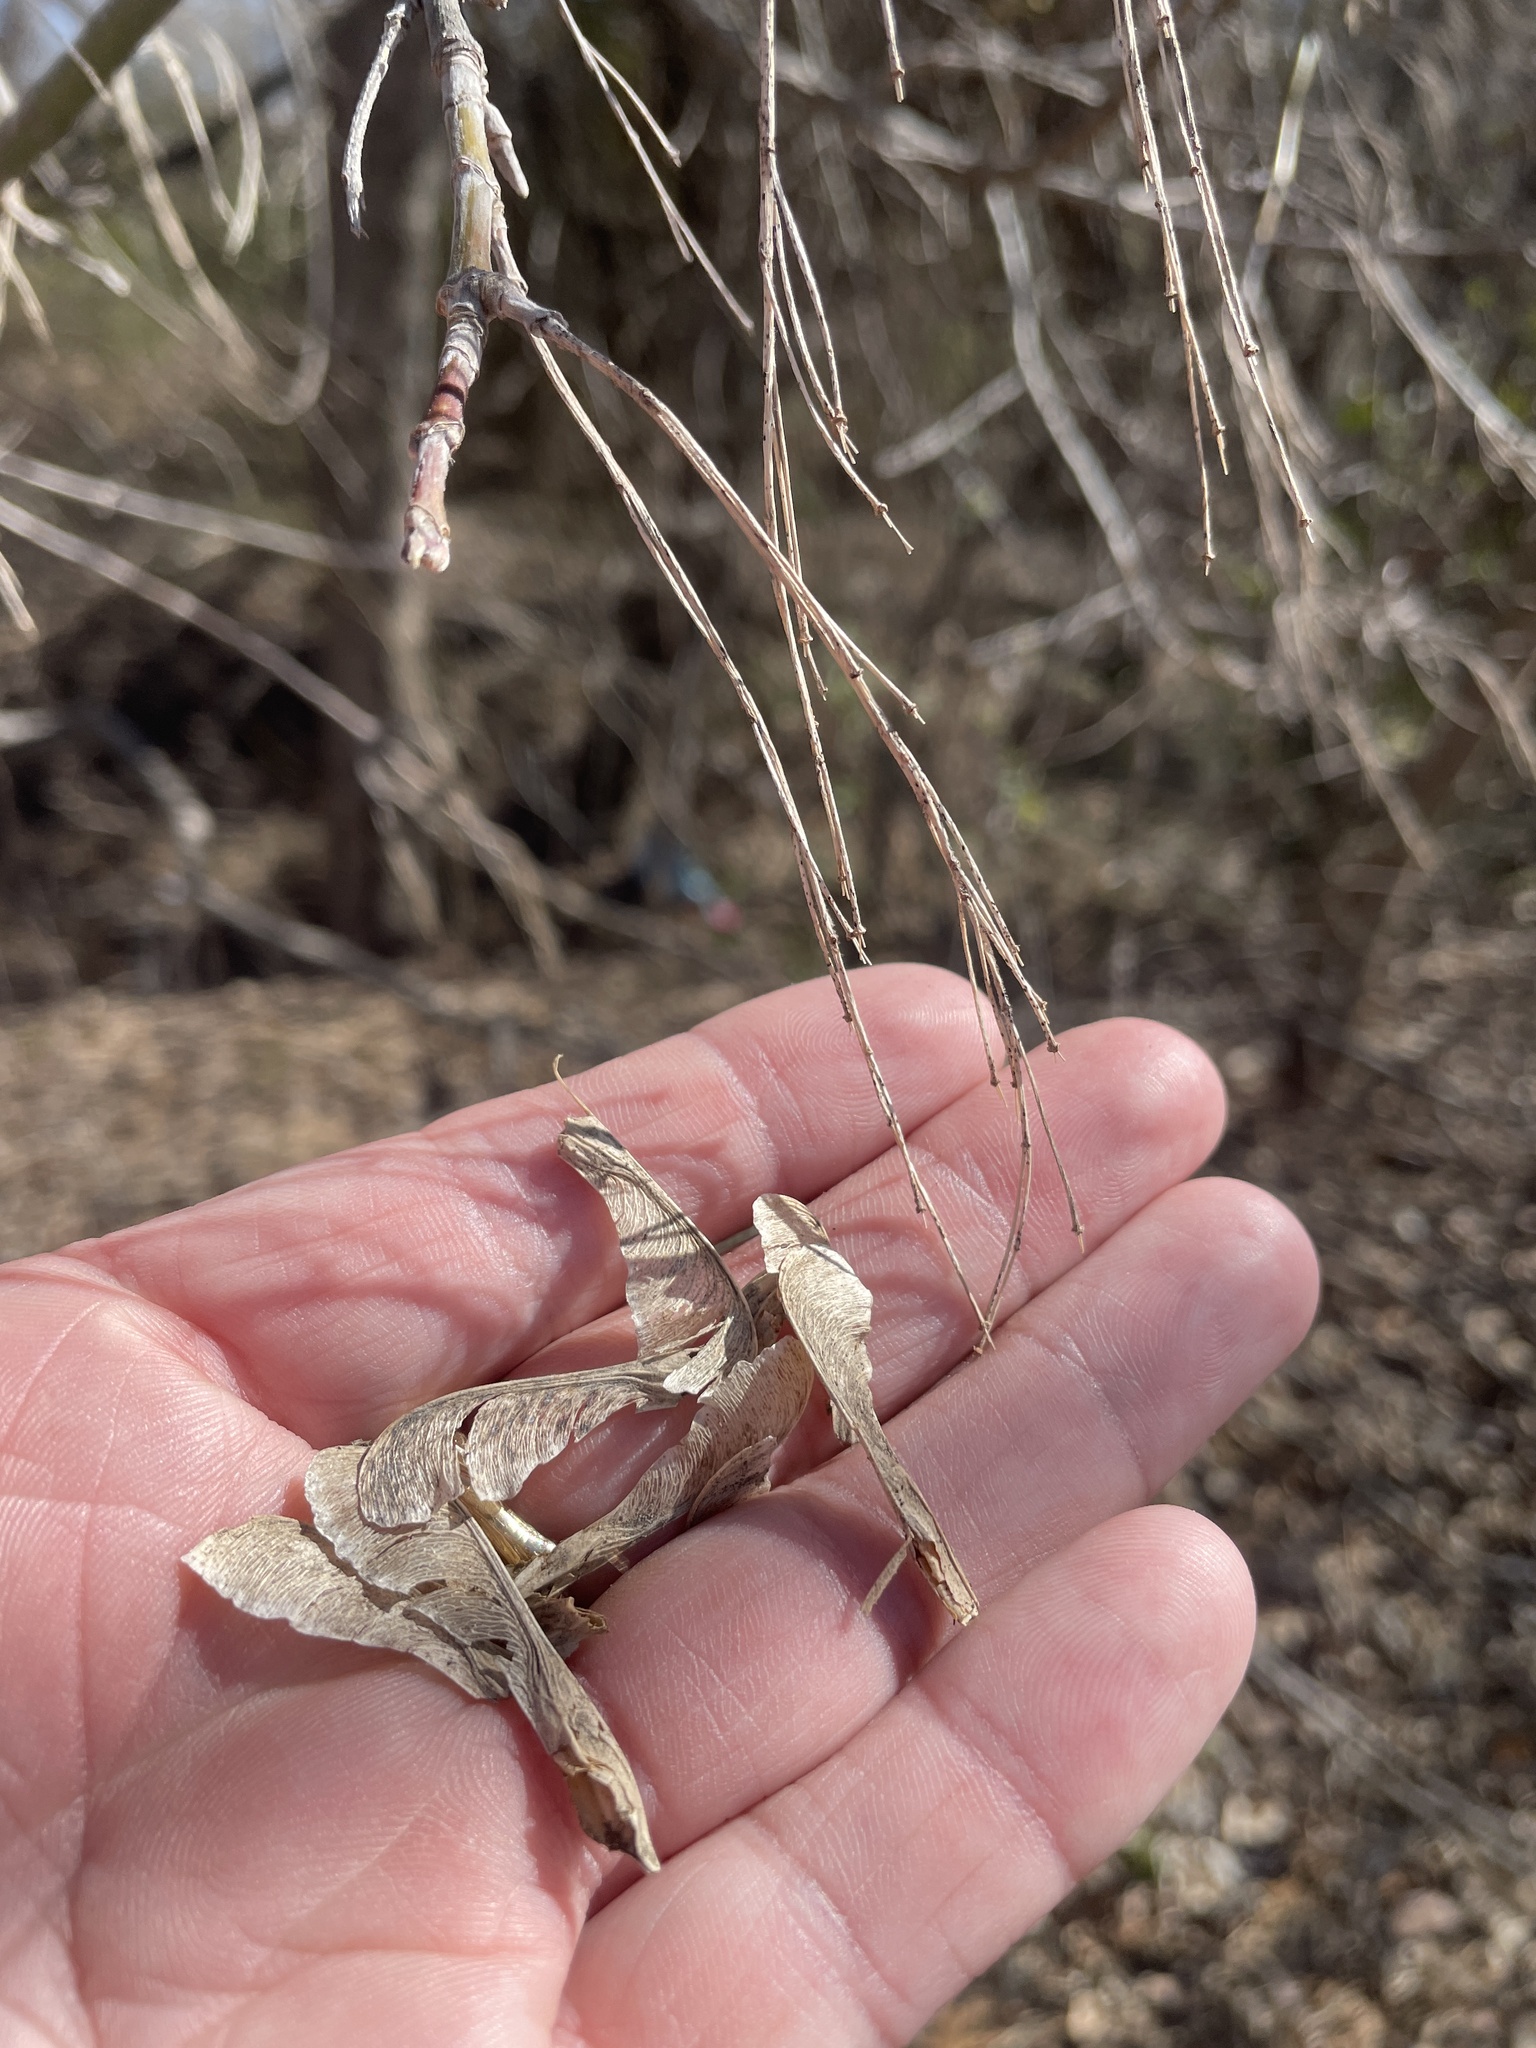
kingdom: Plantae
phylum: Tracheophyta
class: Magnoliopsida
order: Sapindales
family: Sapindaceae
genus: Acer
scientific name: Acer negundo
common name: Ashleaf maple
